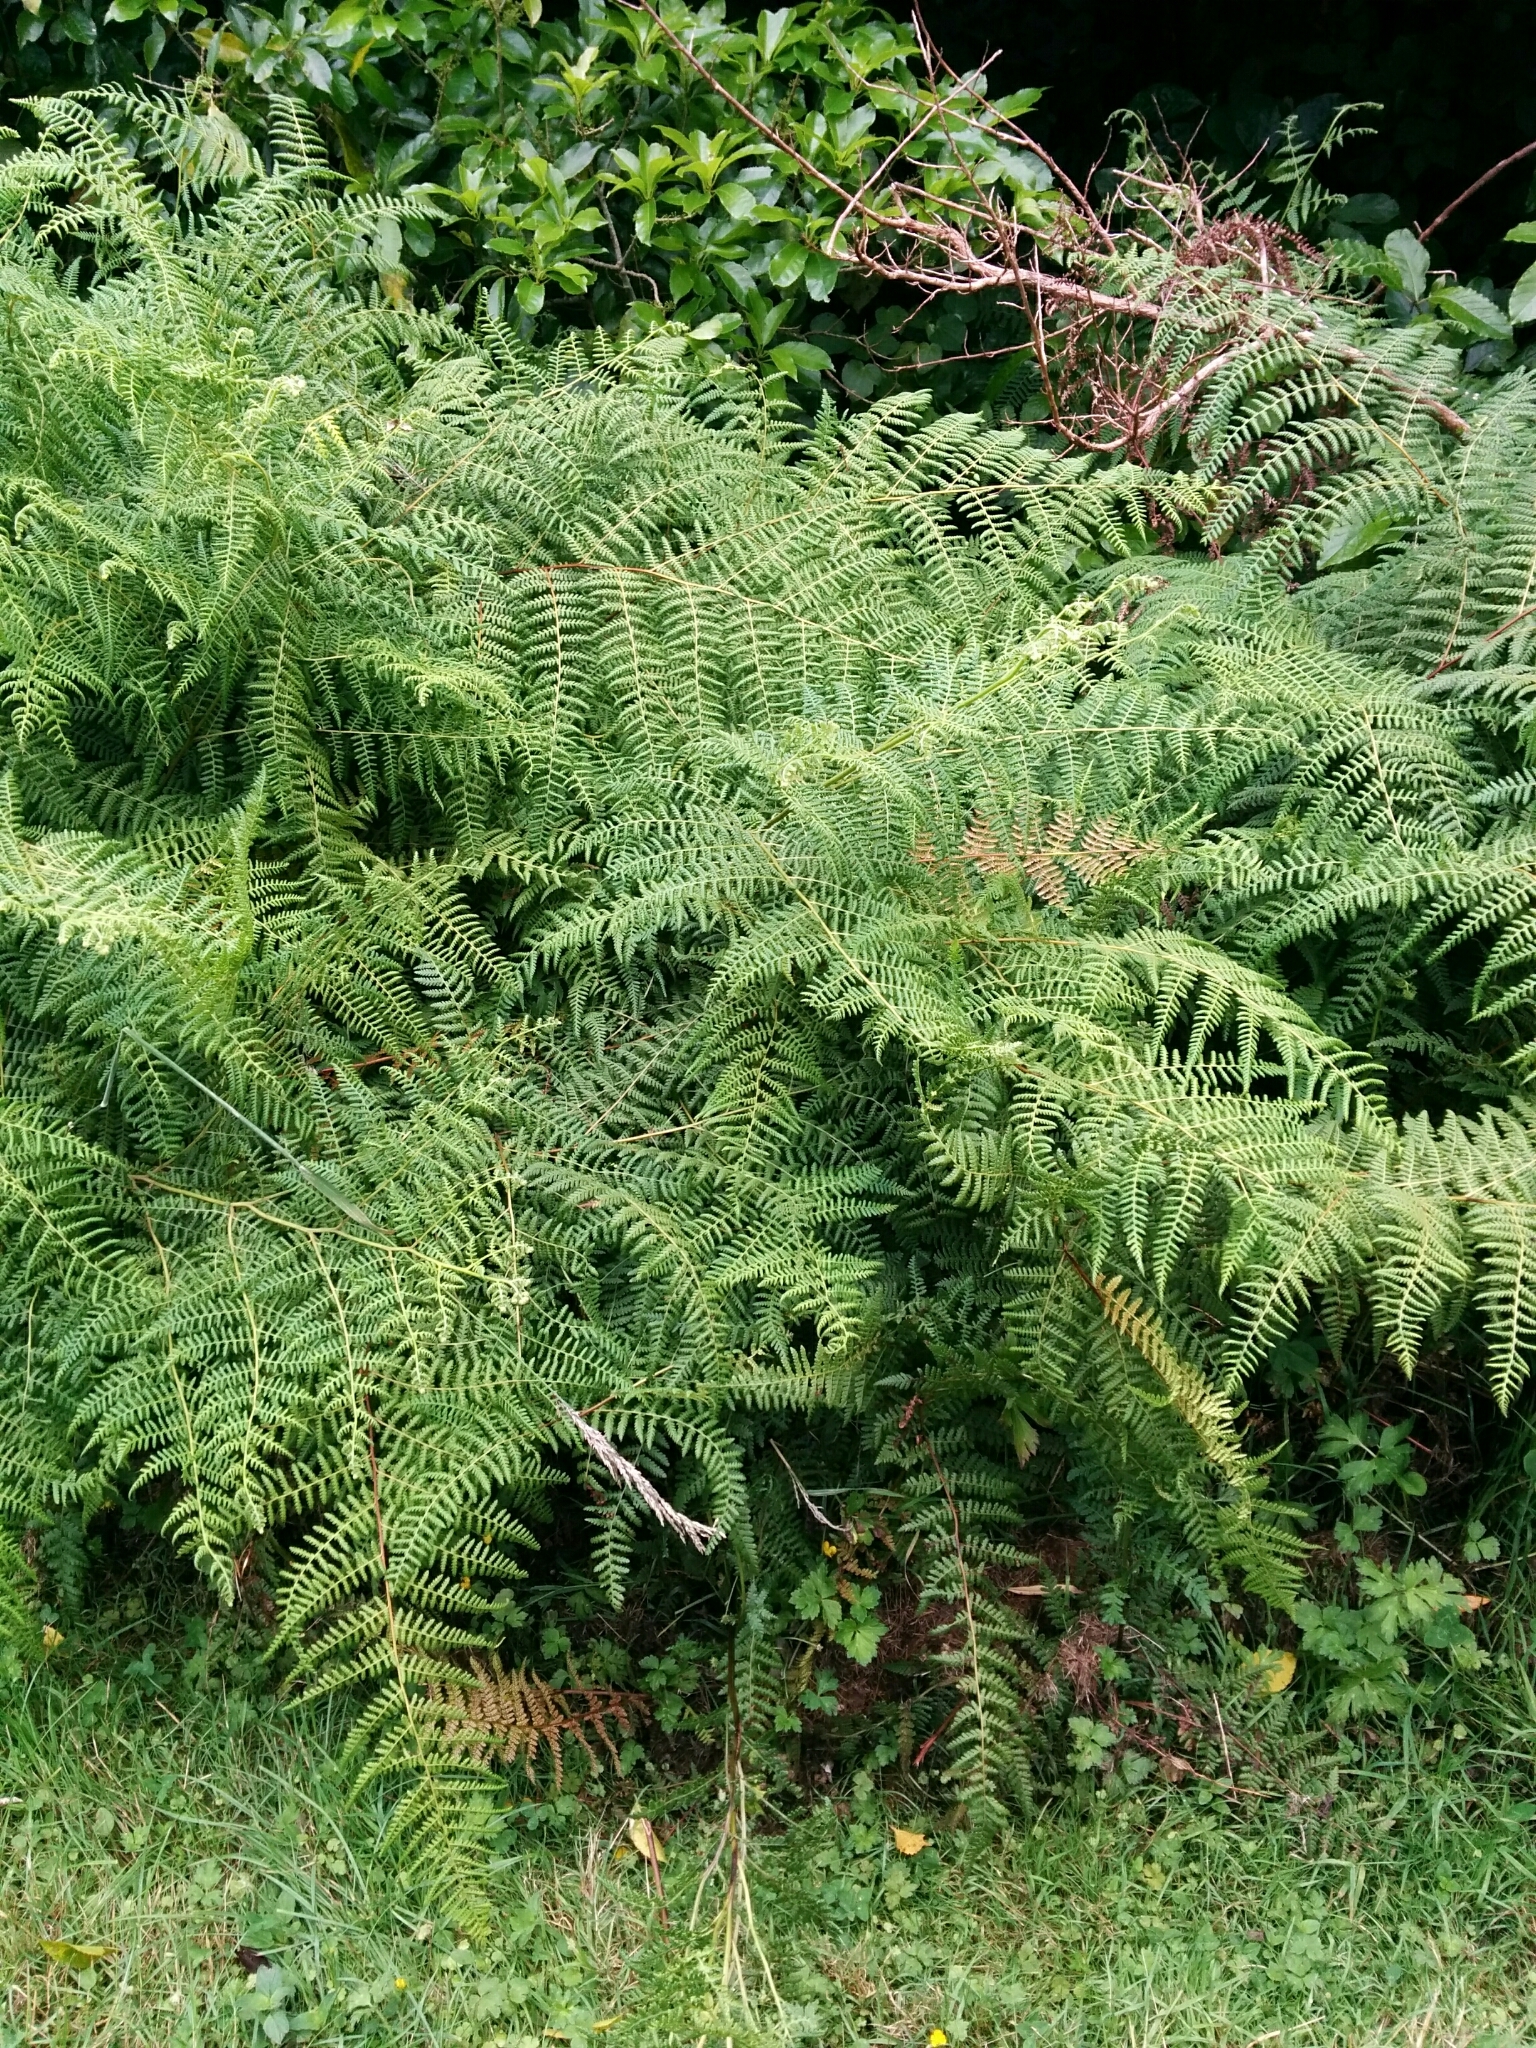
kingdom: Plantae
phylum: Tracheophyta
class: Polypodiopsida
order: Polypodiales
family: Dennstaedtiaceae
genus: Hypolepis
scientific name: Hypolepis ambigua
